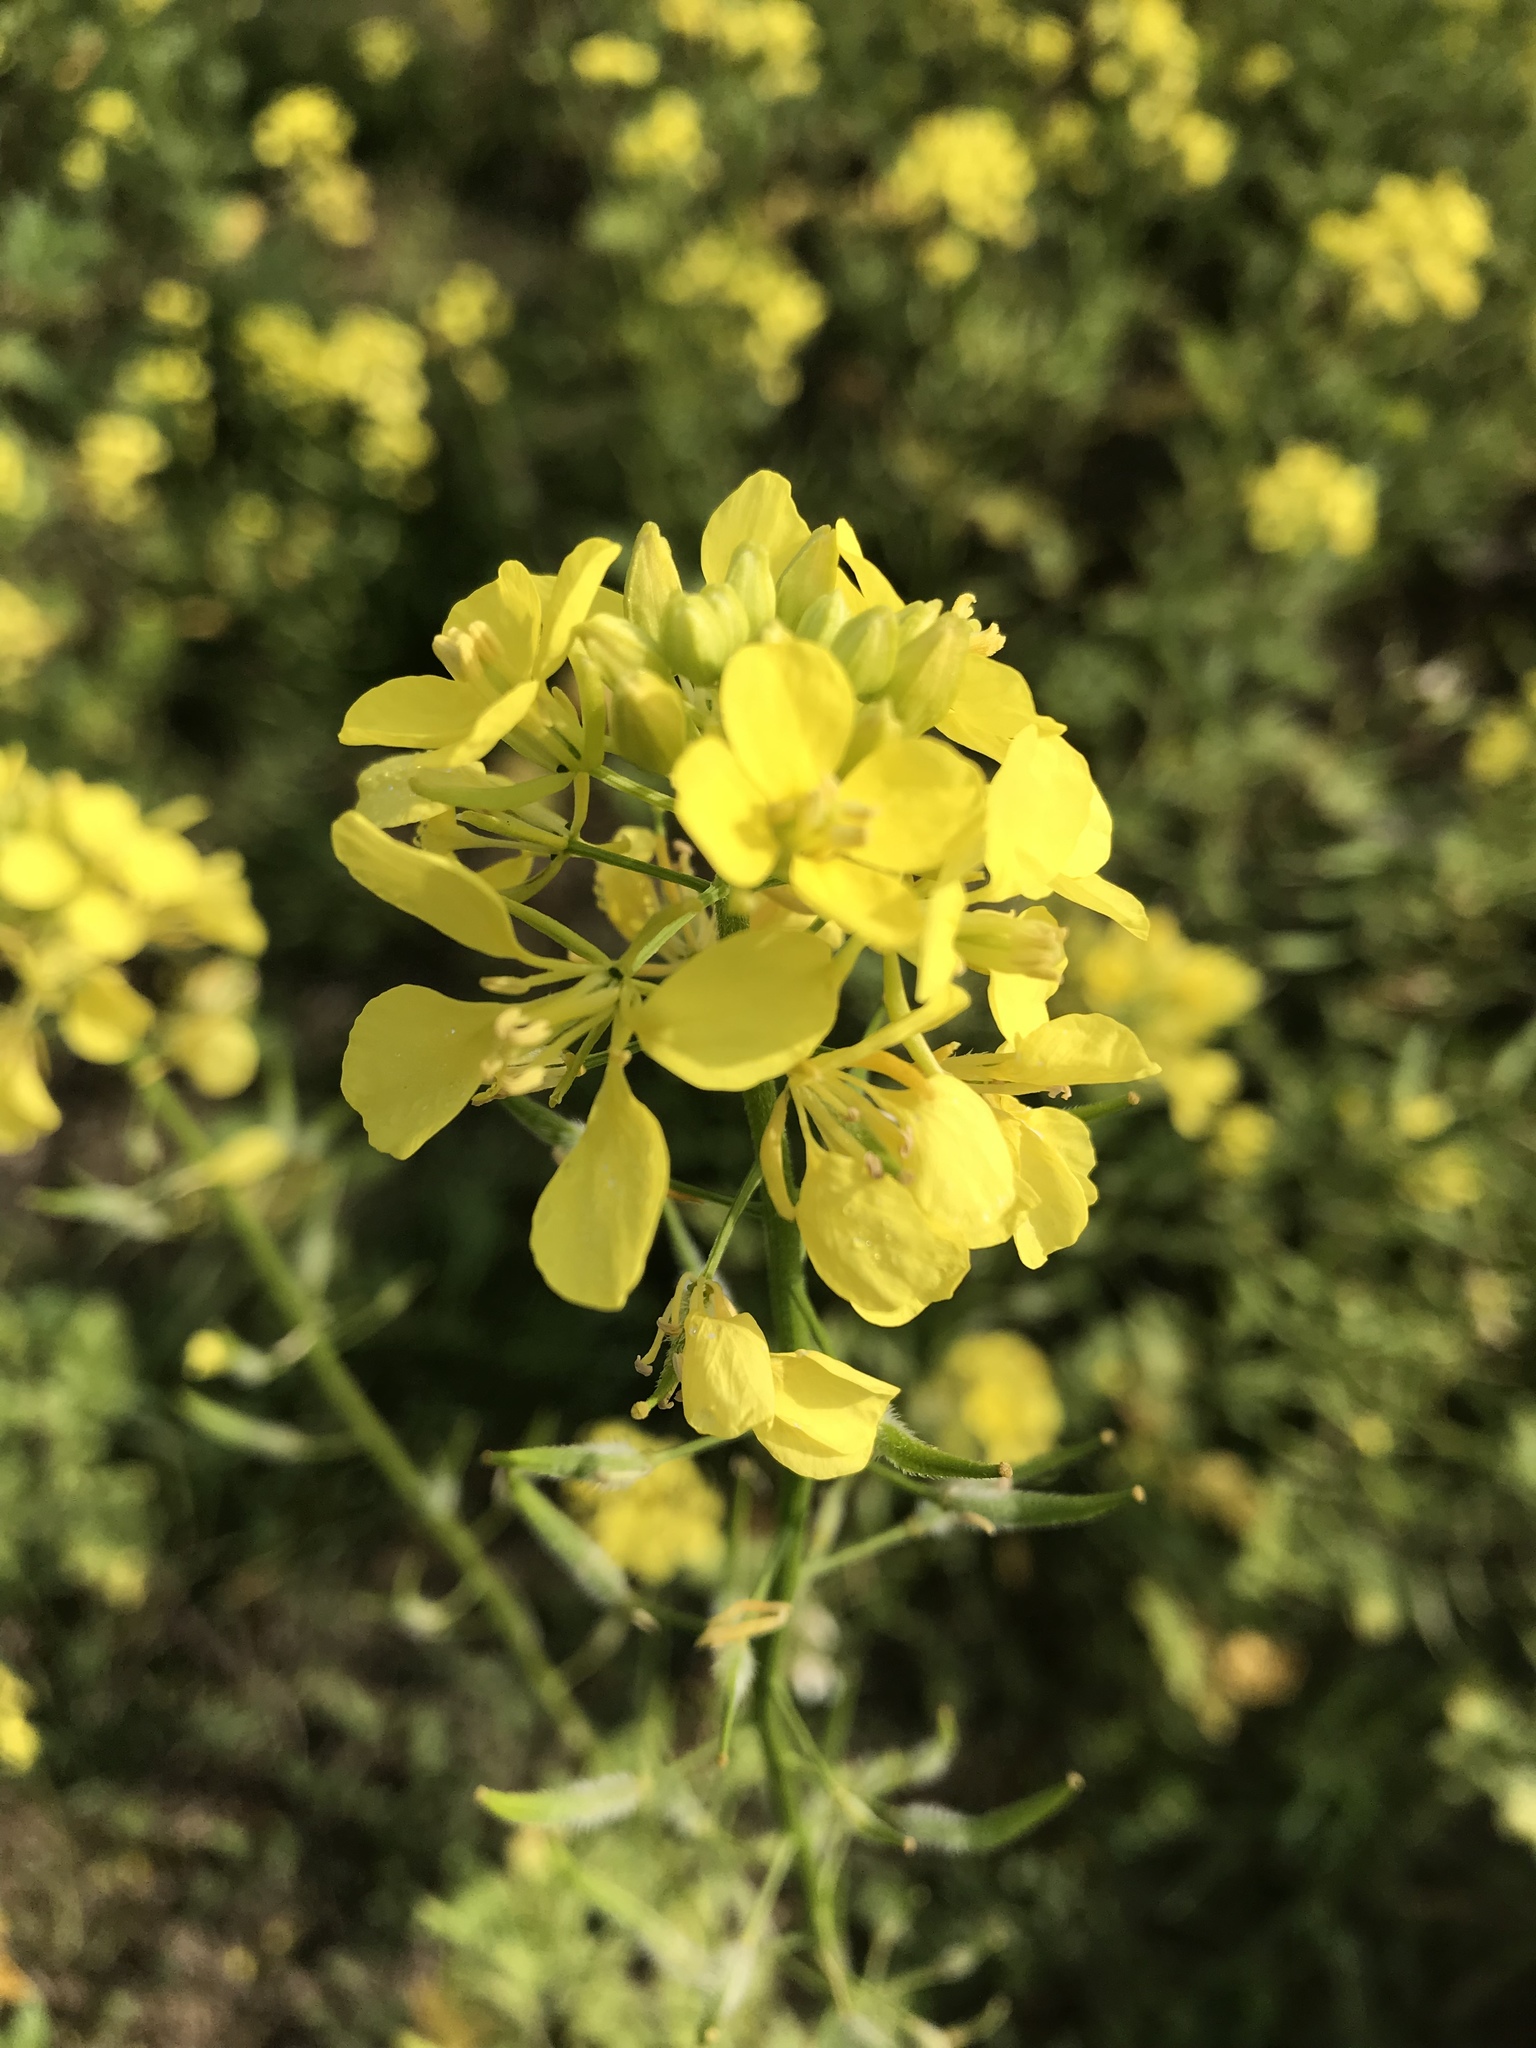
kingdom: Plantae
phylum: Tracheophyta
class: Magnoliopsida
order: Brassicales
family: Brassicaceae
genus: Sinapis
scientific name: Sinapis alba
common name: White mustard
